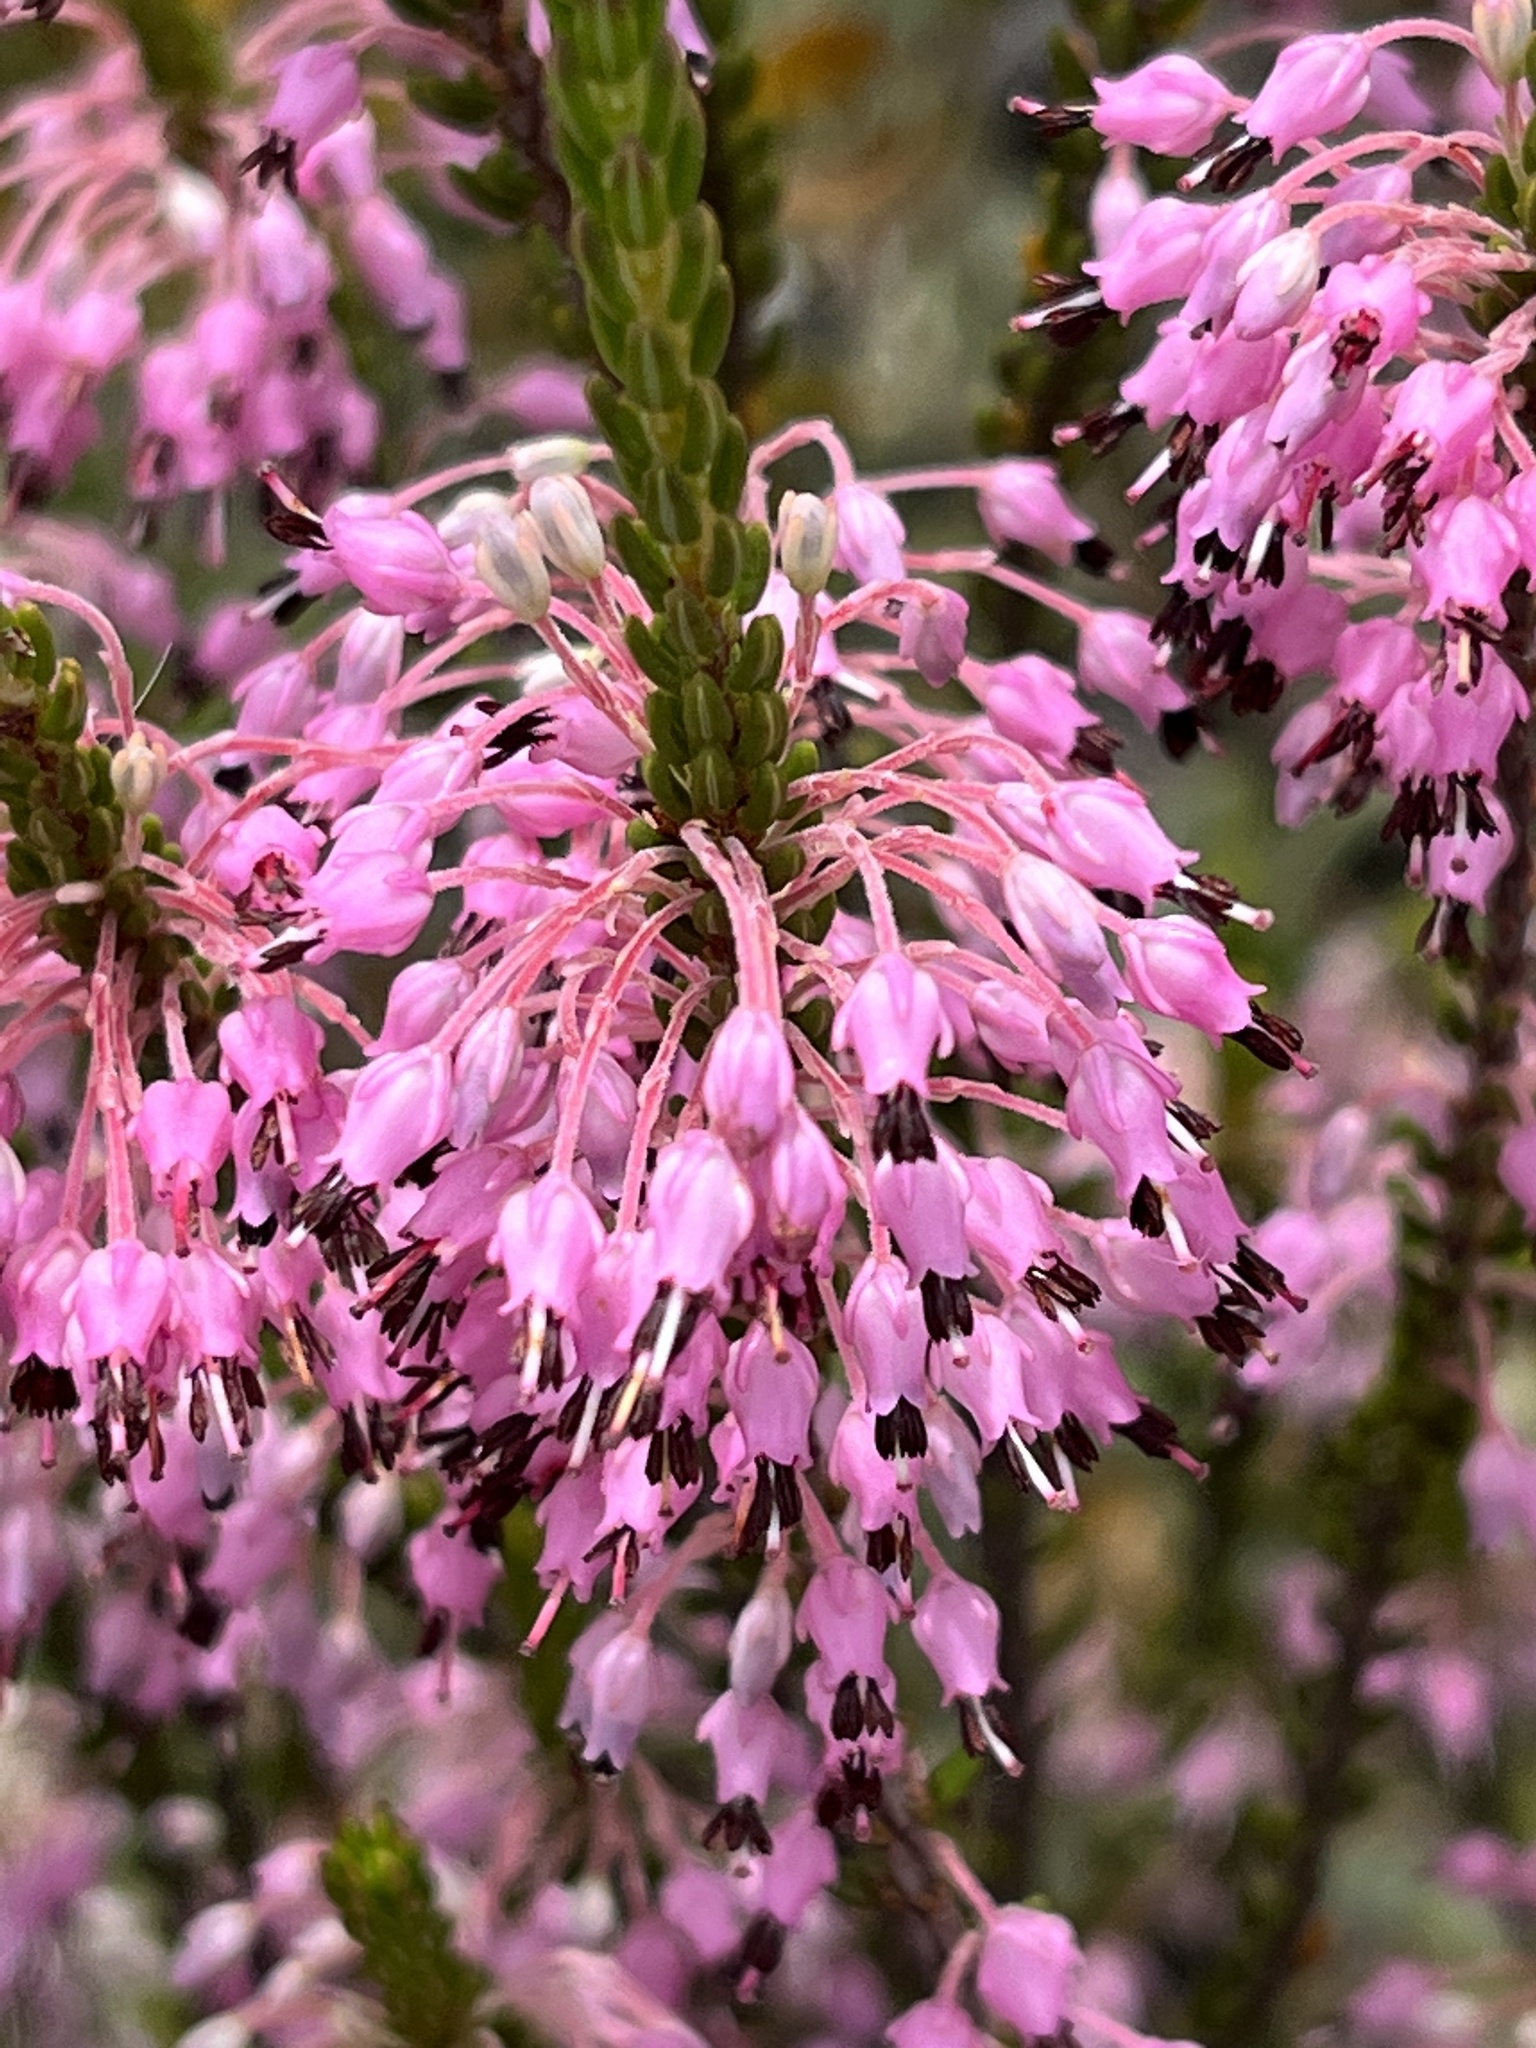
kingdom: Plantae
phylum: Tracheophyta
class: Magnoliopsida
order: Ericales
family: Ericaceae
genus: Erica
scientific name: Erica scytophylla
